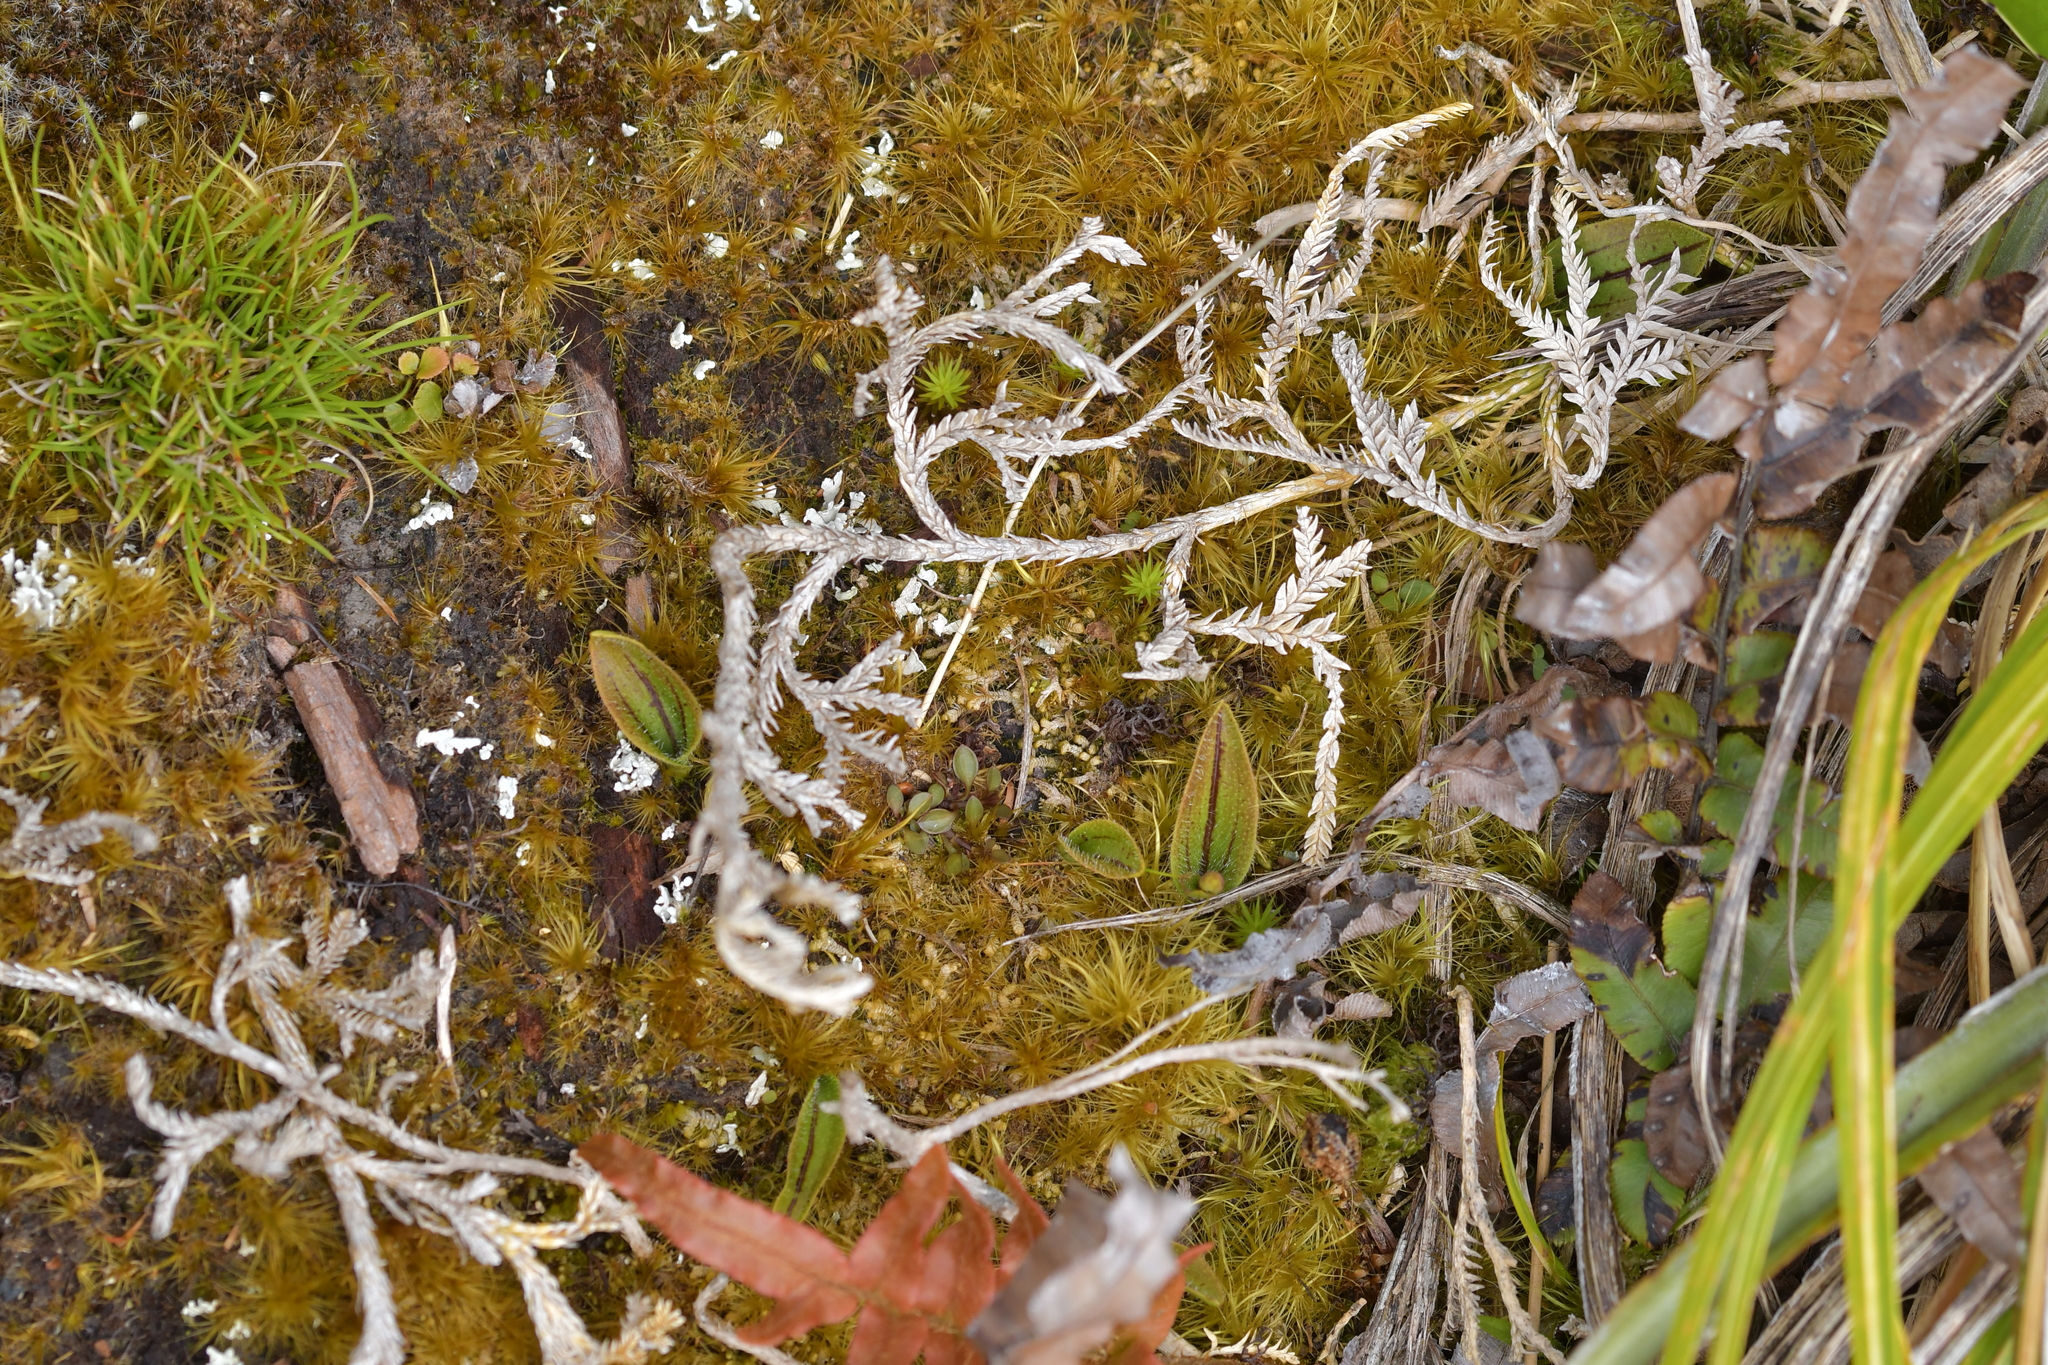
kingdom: Plantae
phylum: Tracheophyta
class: Liliopsida
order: Asparagales
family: Orchidaceae
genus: Aporostylis
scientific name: Aporostylis bifolia
